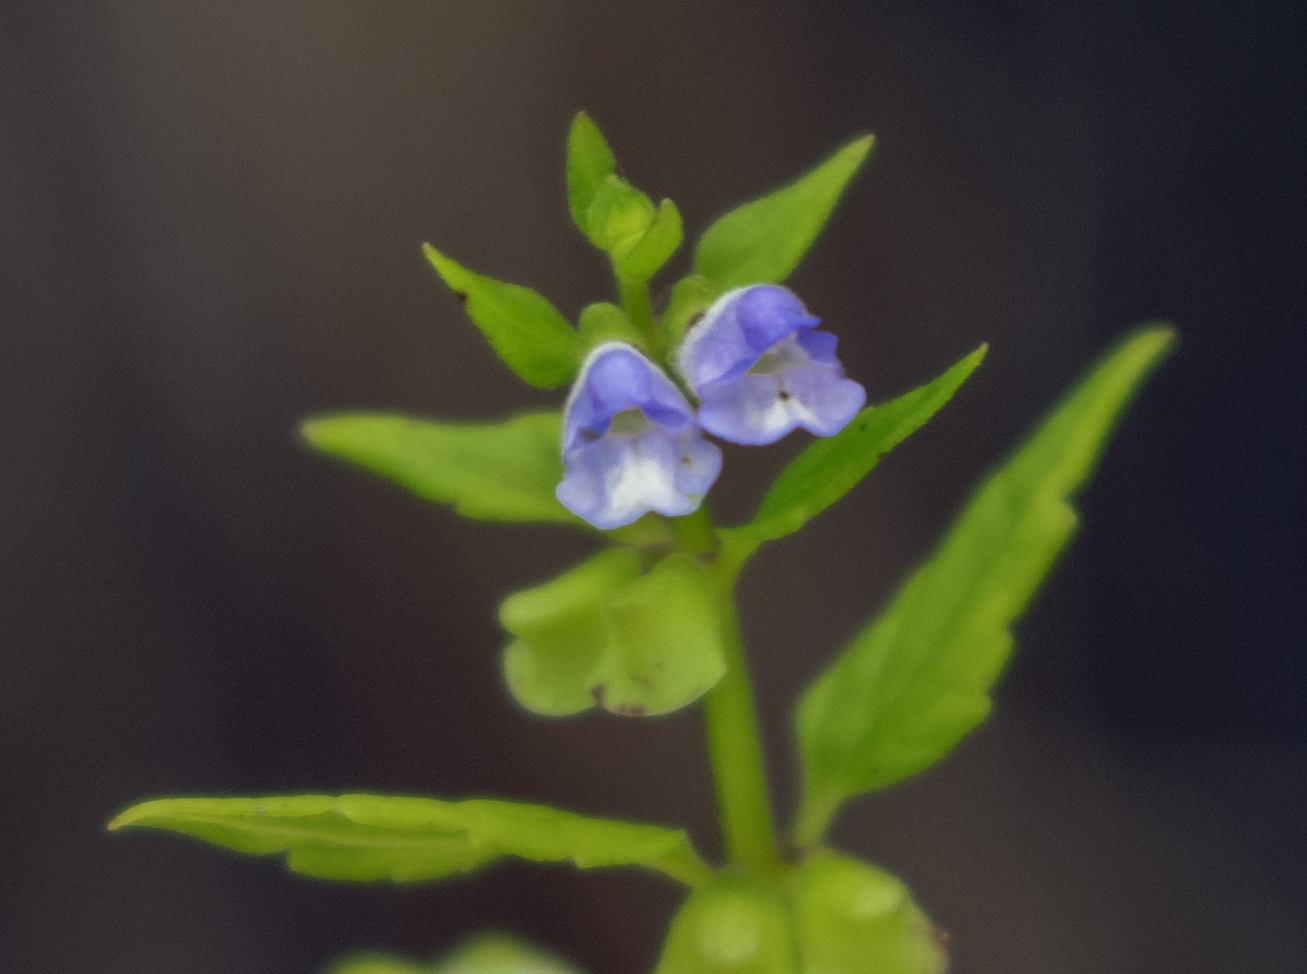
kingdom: Plantae
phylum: Tracheophyta
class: Magnoliopsida
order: Lamiales
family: Lamiaceae
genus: Scutellaria
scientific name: Scutellaria lateriflora
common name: Blue skullcap
